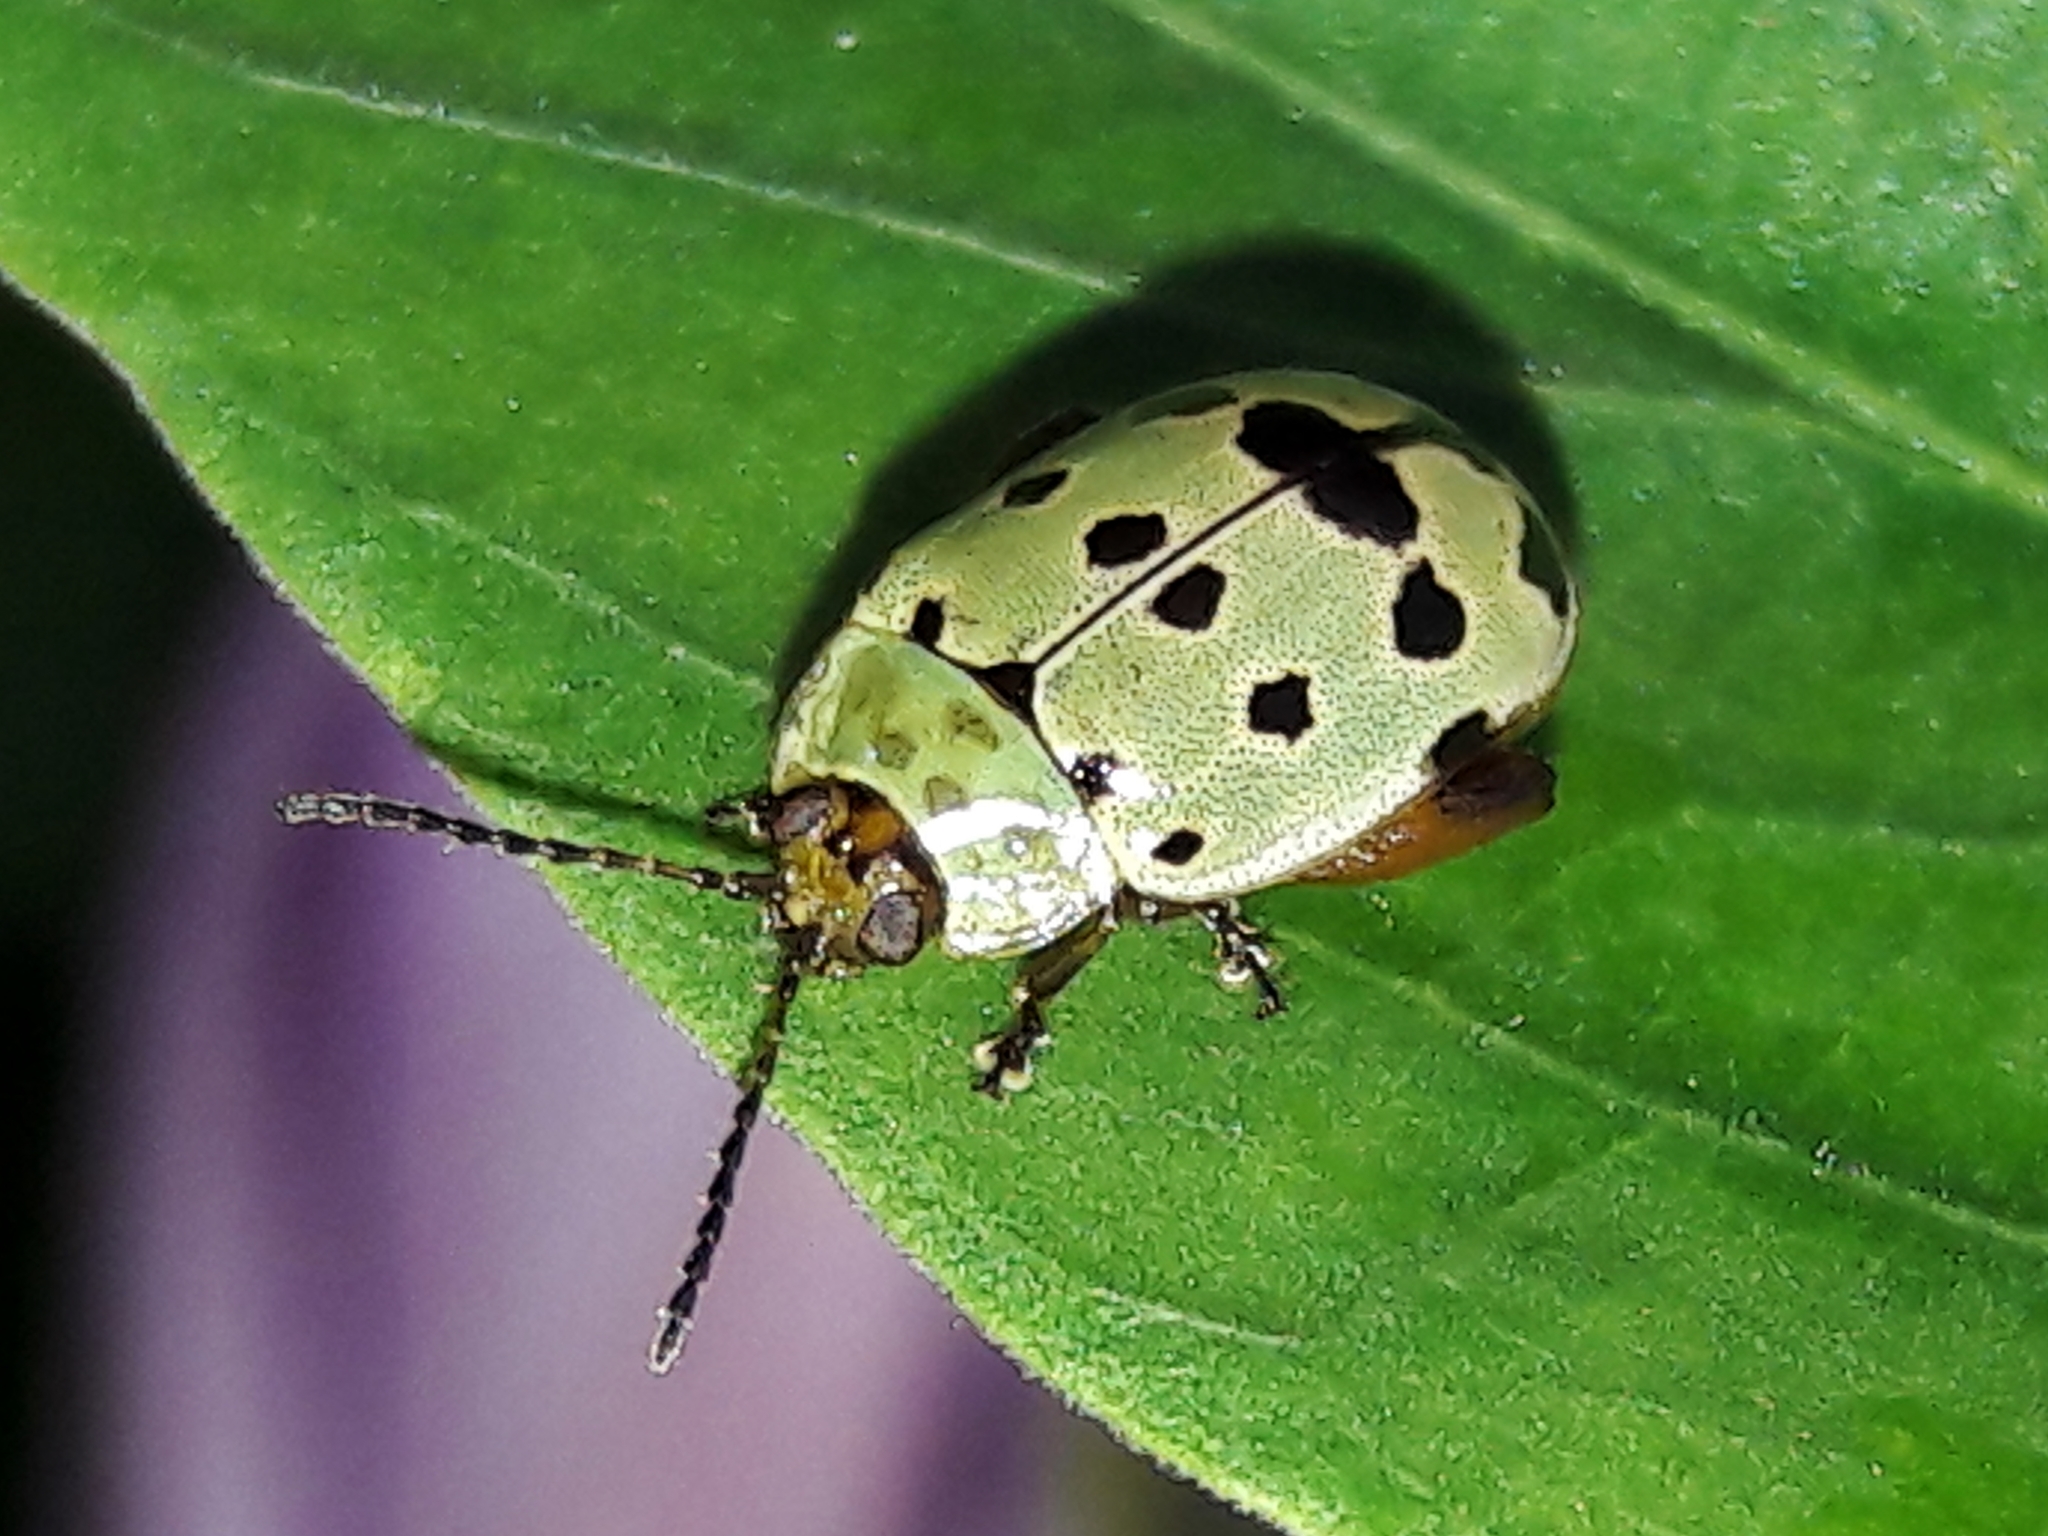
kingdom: Animalia
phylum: Arthropoda
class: Insecta
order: Coleoptera
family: Chrysomelidae
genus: Alagoasa
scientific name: Alagoasa
